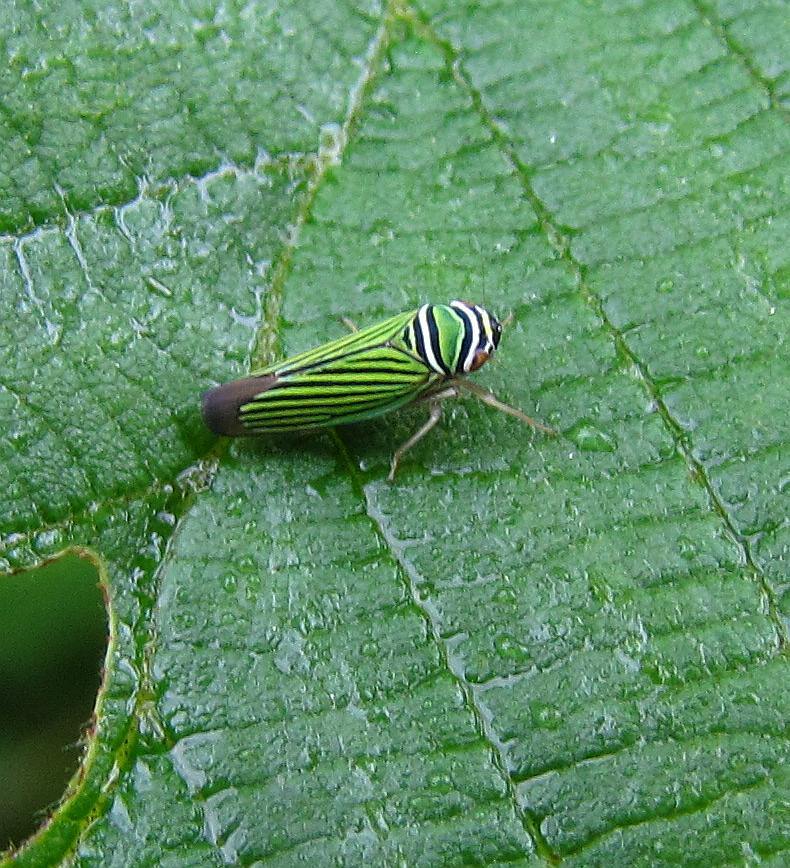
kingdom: Animalia
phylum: Arthropoda
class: Insecta
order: Hemiptera
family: Cicadellidae
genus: Tylozygus
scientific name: Tylozygus bifidus
